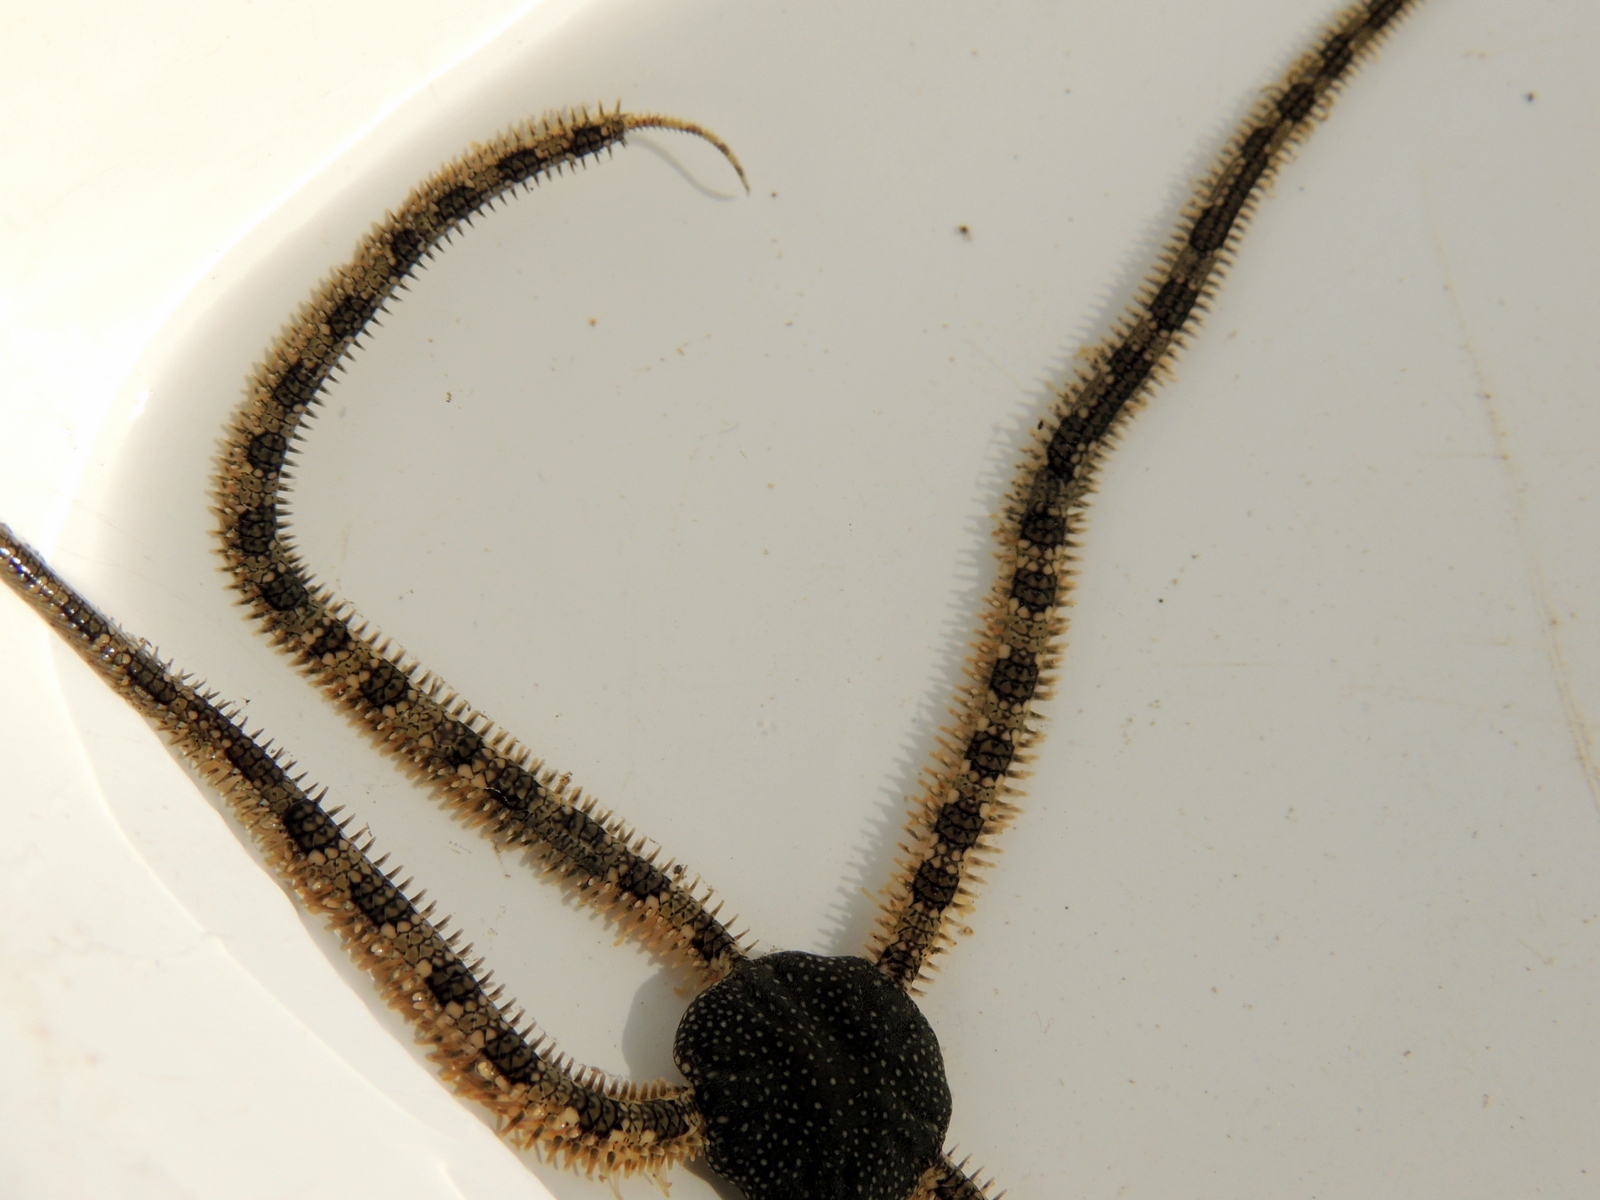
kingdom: Animalia
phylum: Echinodermata
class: Ophiuroidea
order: Amphilepidida
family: Ophionereididae
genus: Ophionereis
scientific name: Ophionereis annulata
